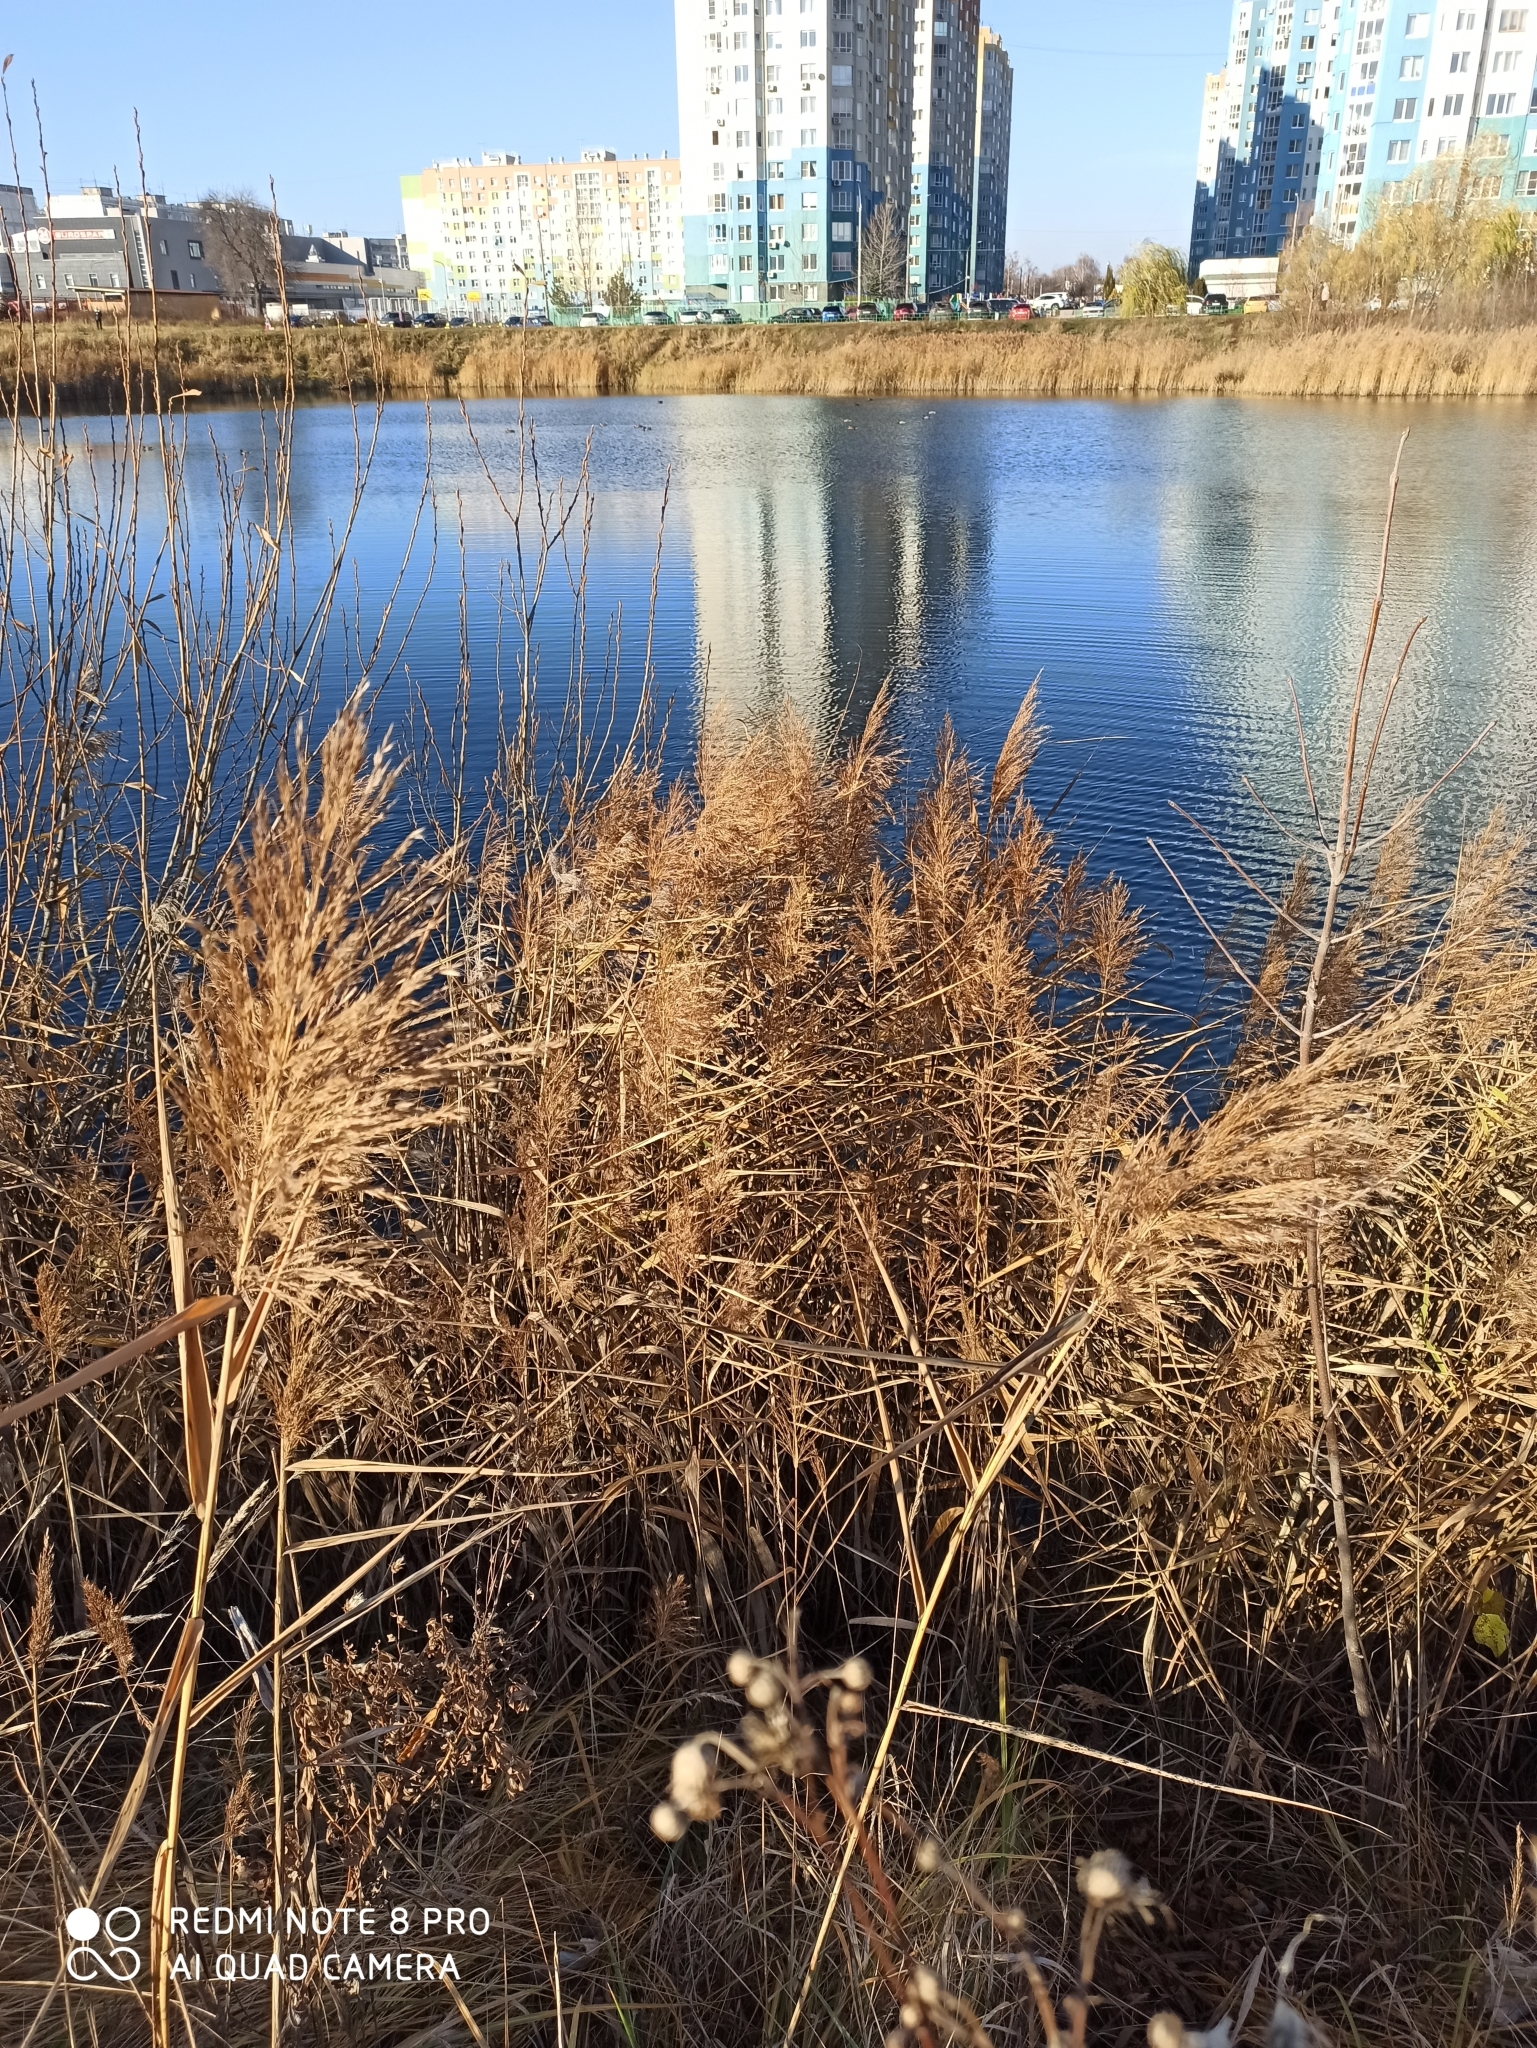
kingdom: Plantae
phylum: Tracheophyta
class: Liliopsida
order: Poales
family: Poaceae
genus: Phragmites
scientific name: Phragmites australis
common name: Common reed
